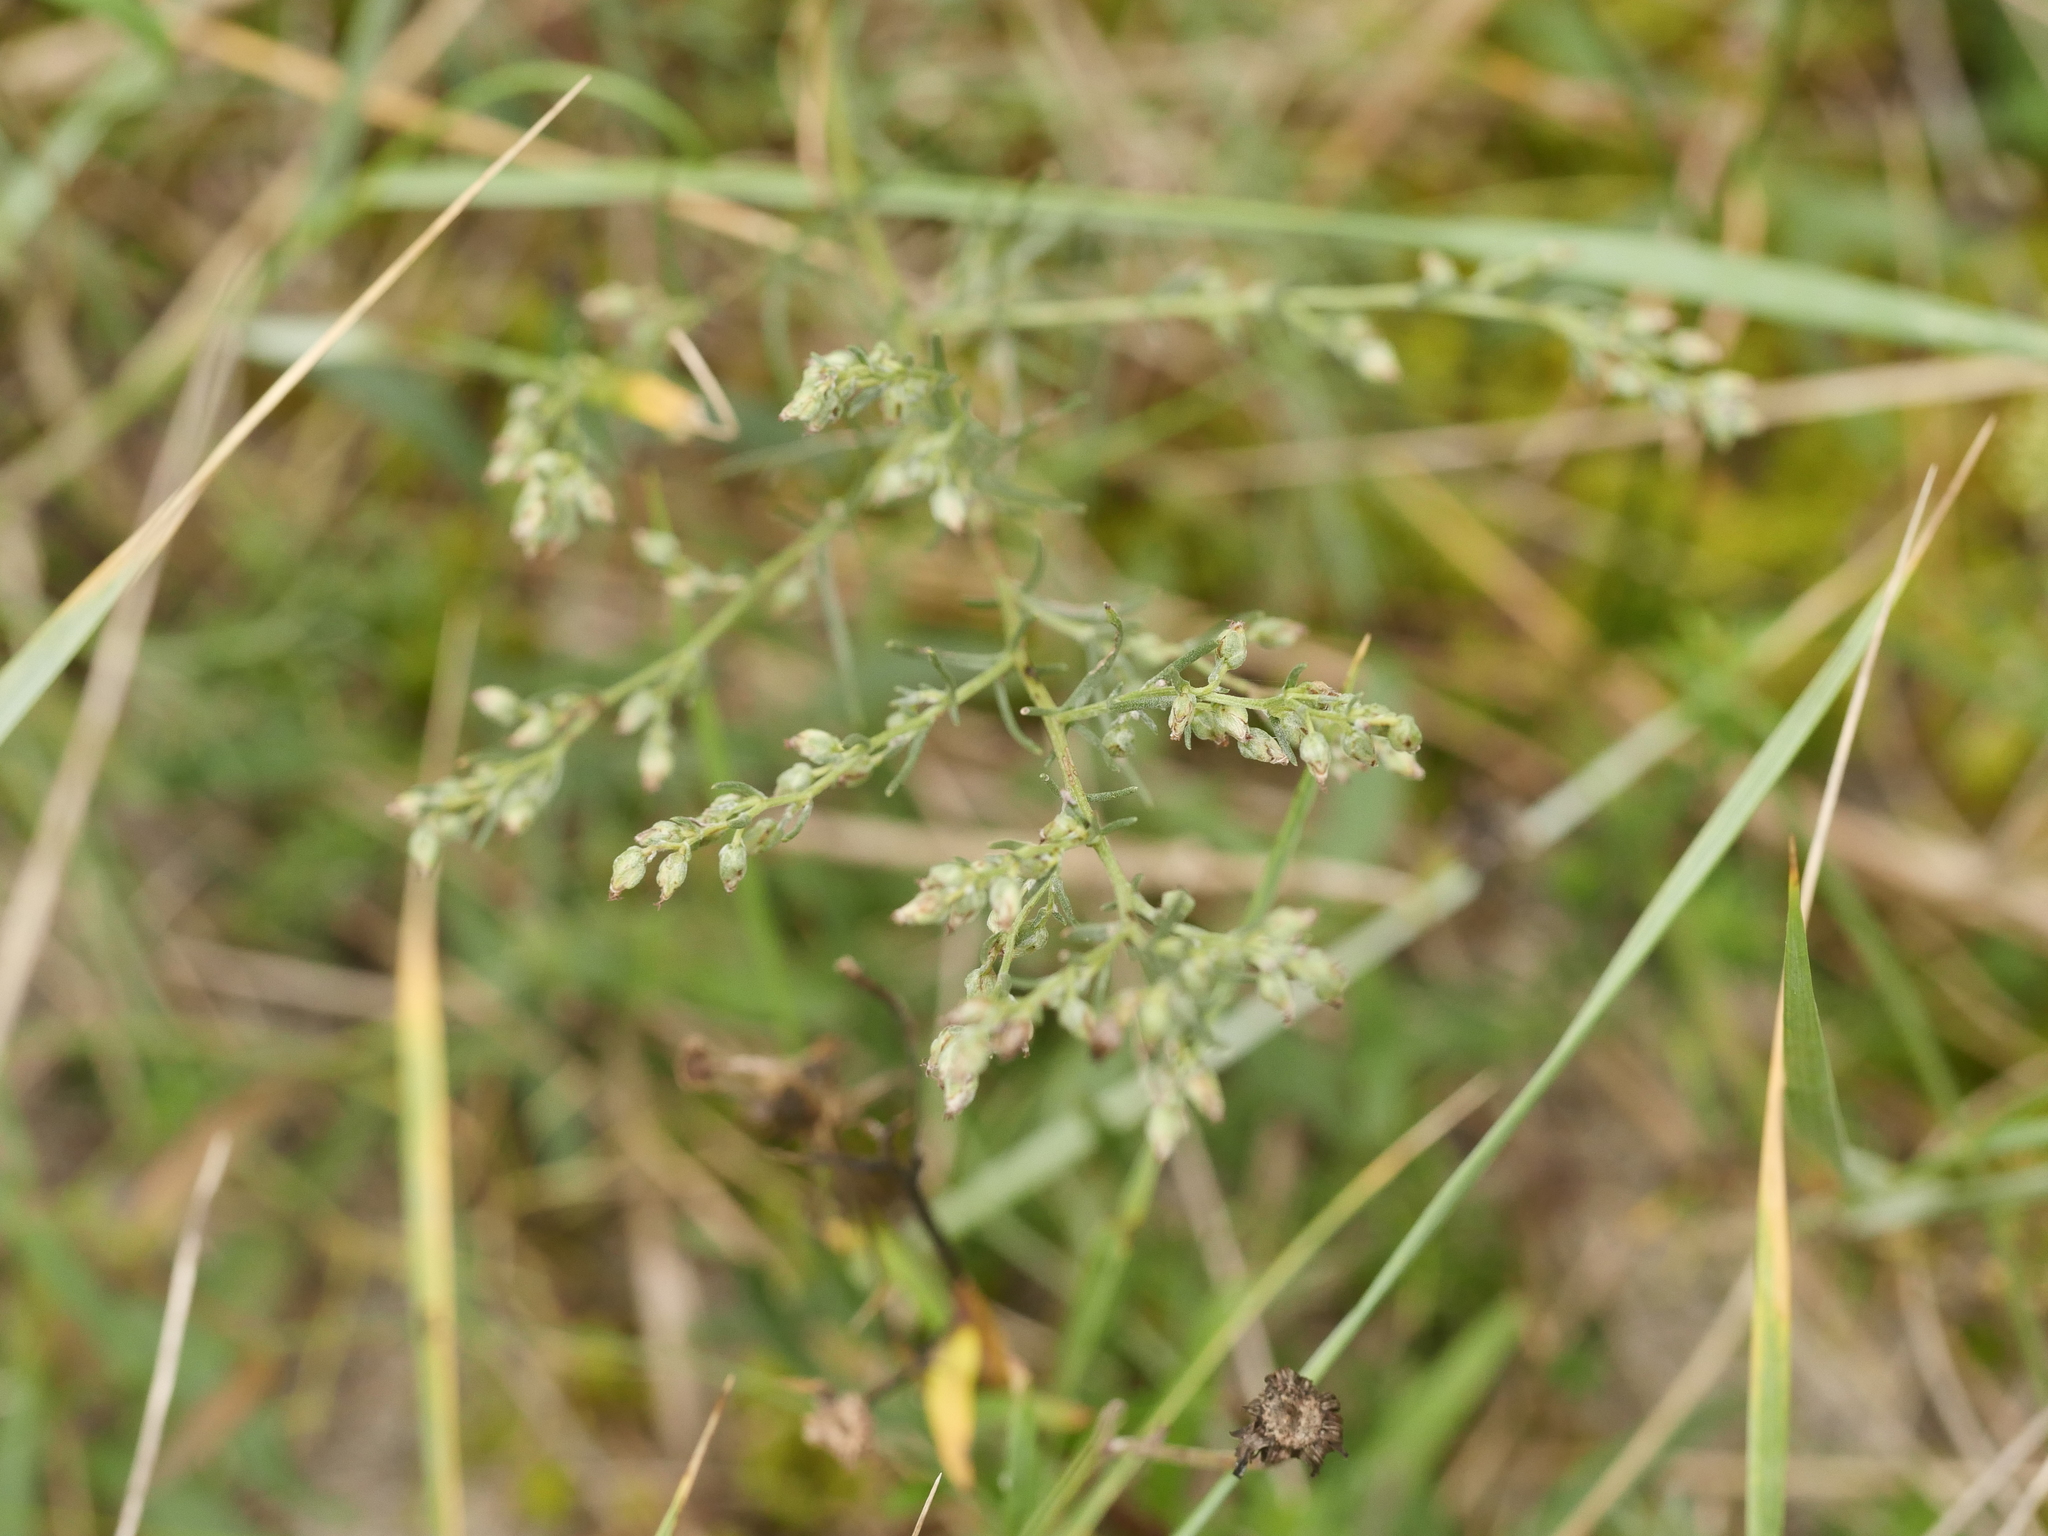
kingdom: Plantae
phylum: Tracheophyta
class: Magnoliopsida
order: Asterales
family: Asteraceae
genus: Artemisia
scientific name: Artemisia campestris
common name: Field wormwood
